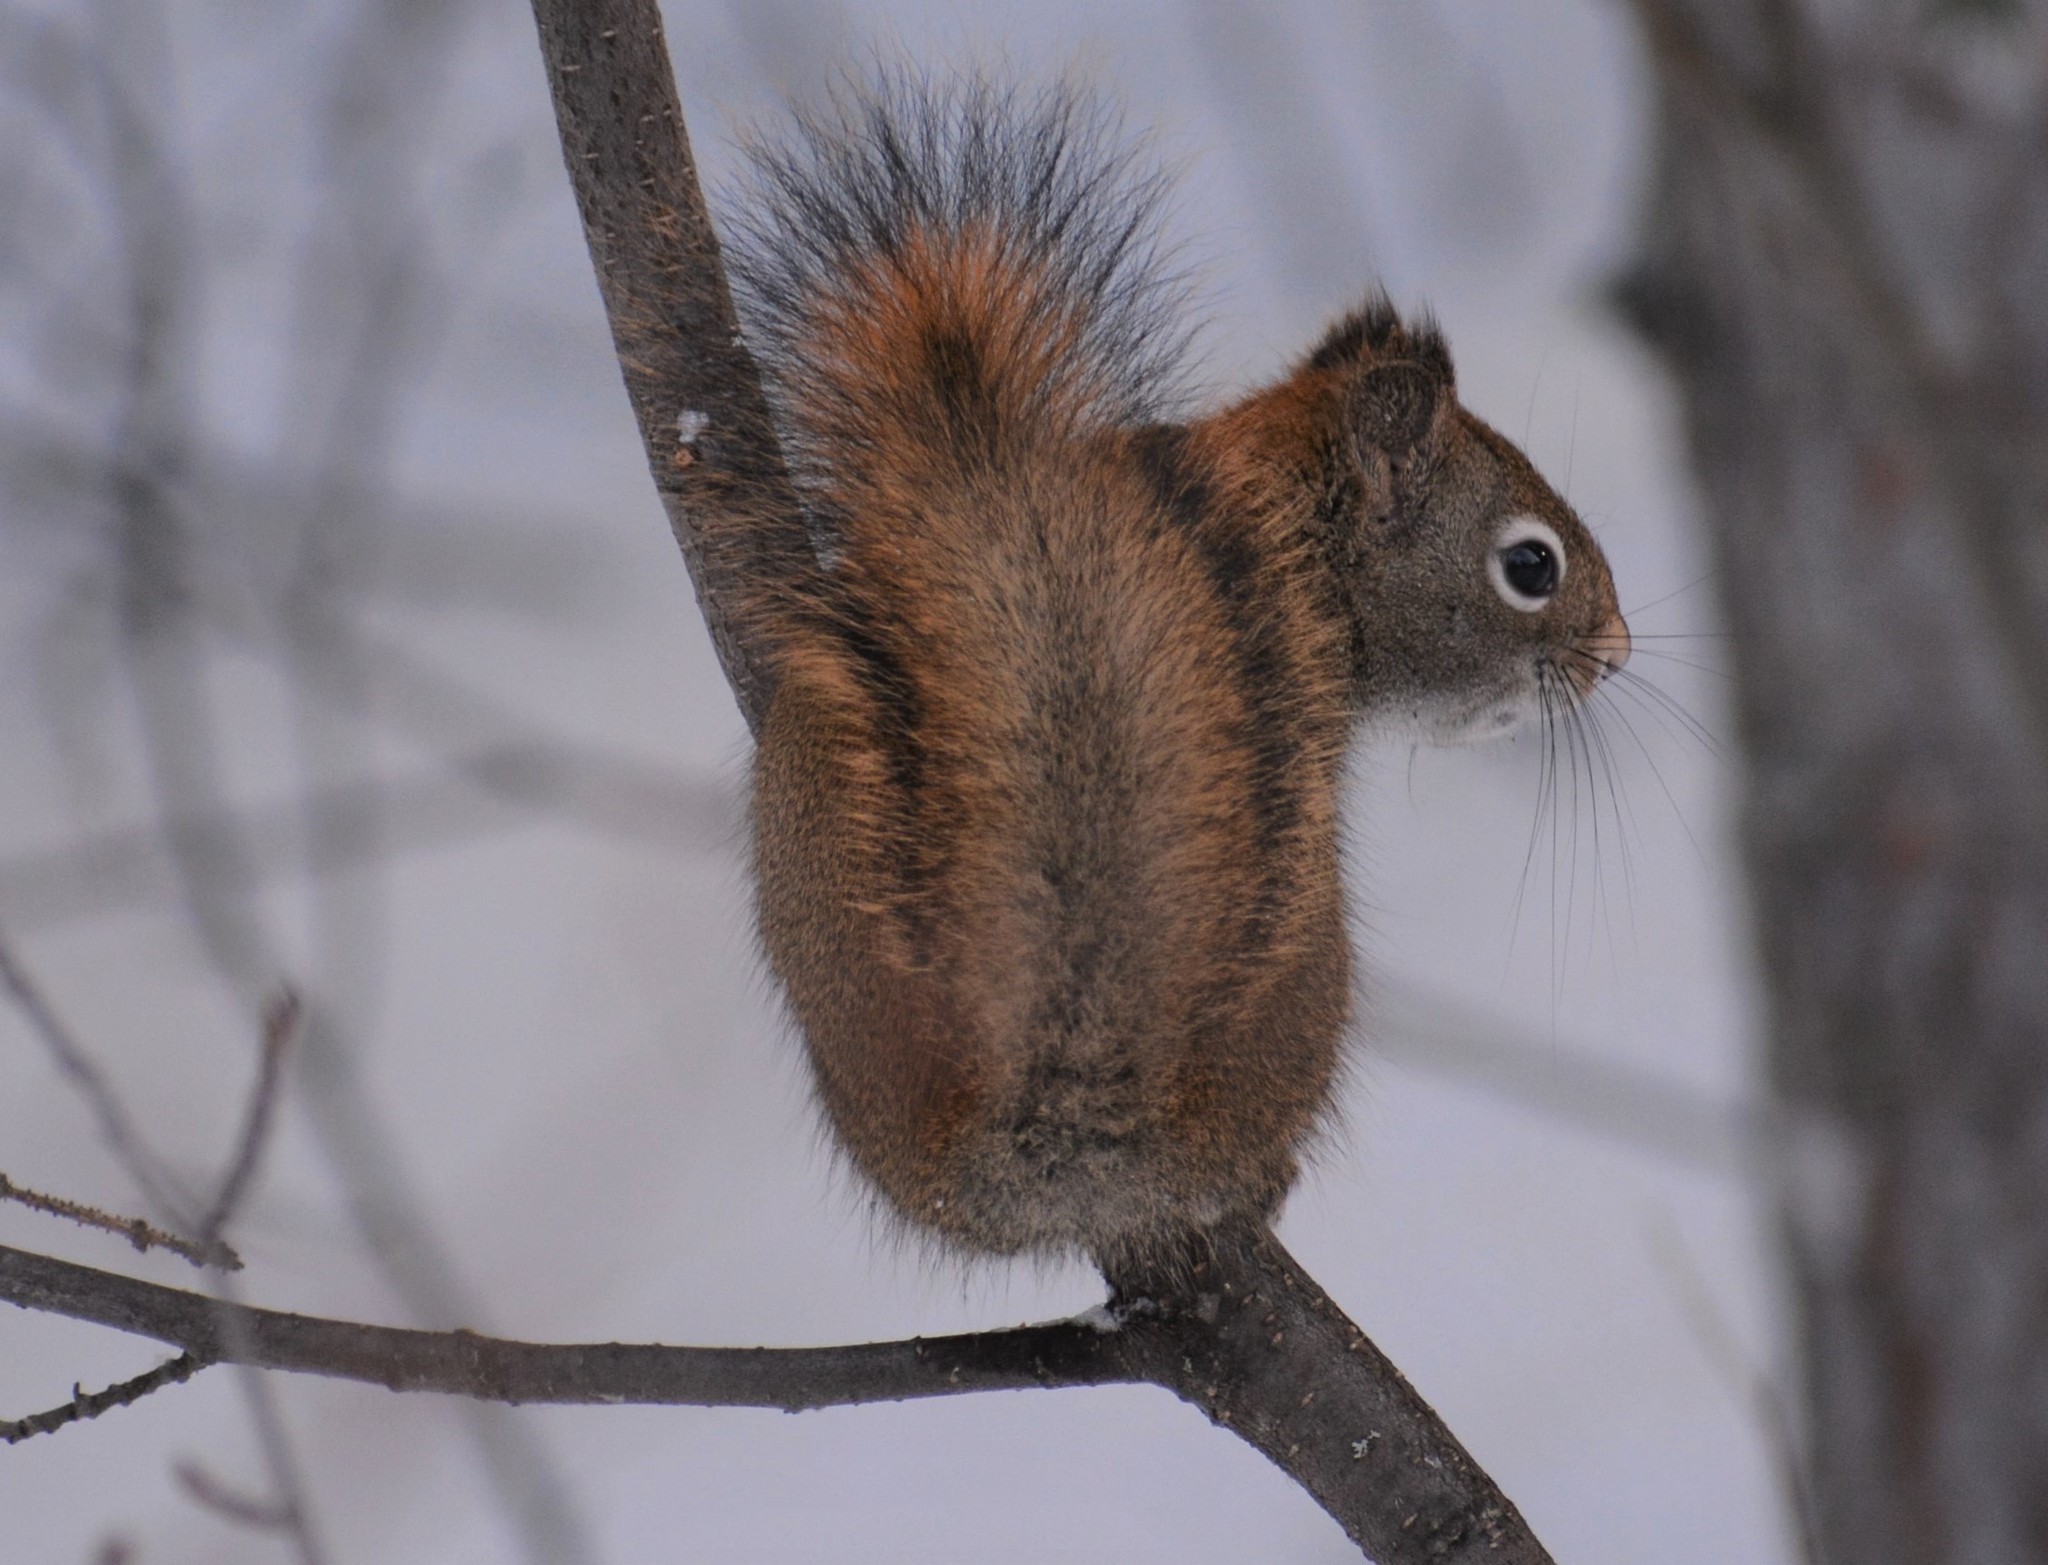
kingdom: Animalia
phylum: Chordata
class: Mammalia
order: Rodentia
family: Sciuridae
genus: Tamiasciurus
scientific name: Tamiasciurus hudsonicus
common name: Red squirrel
